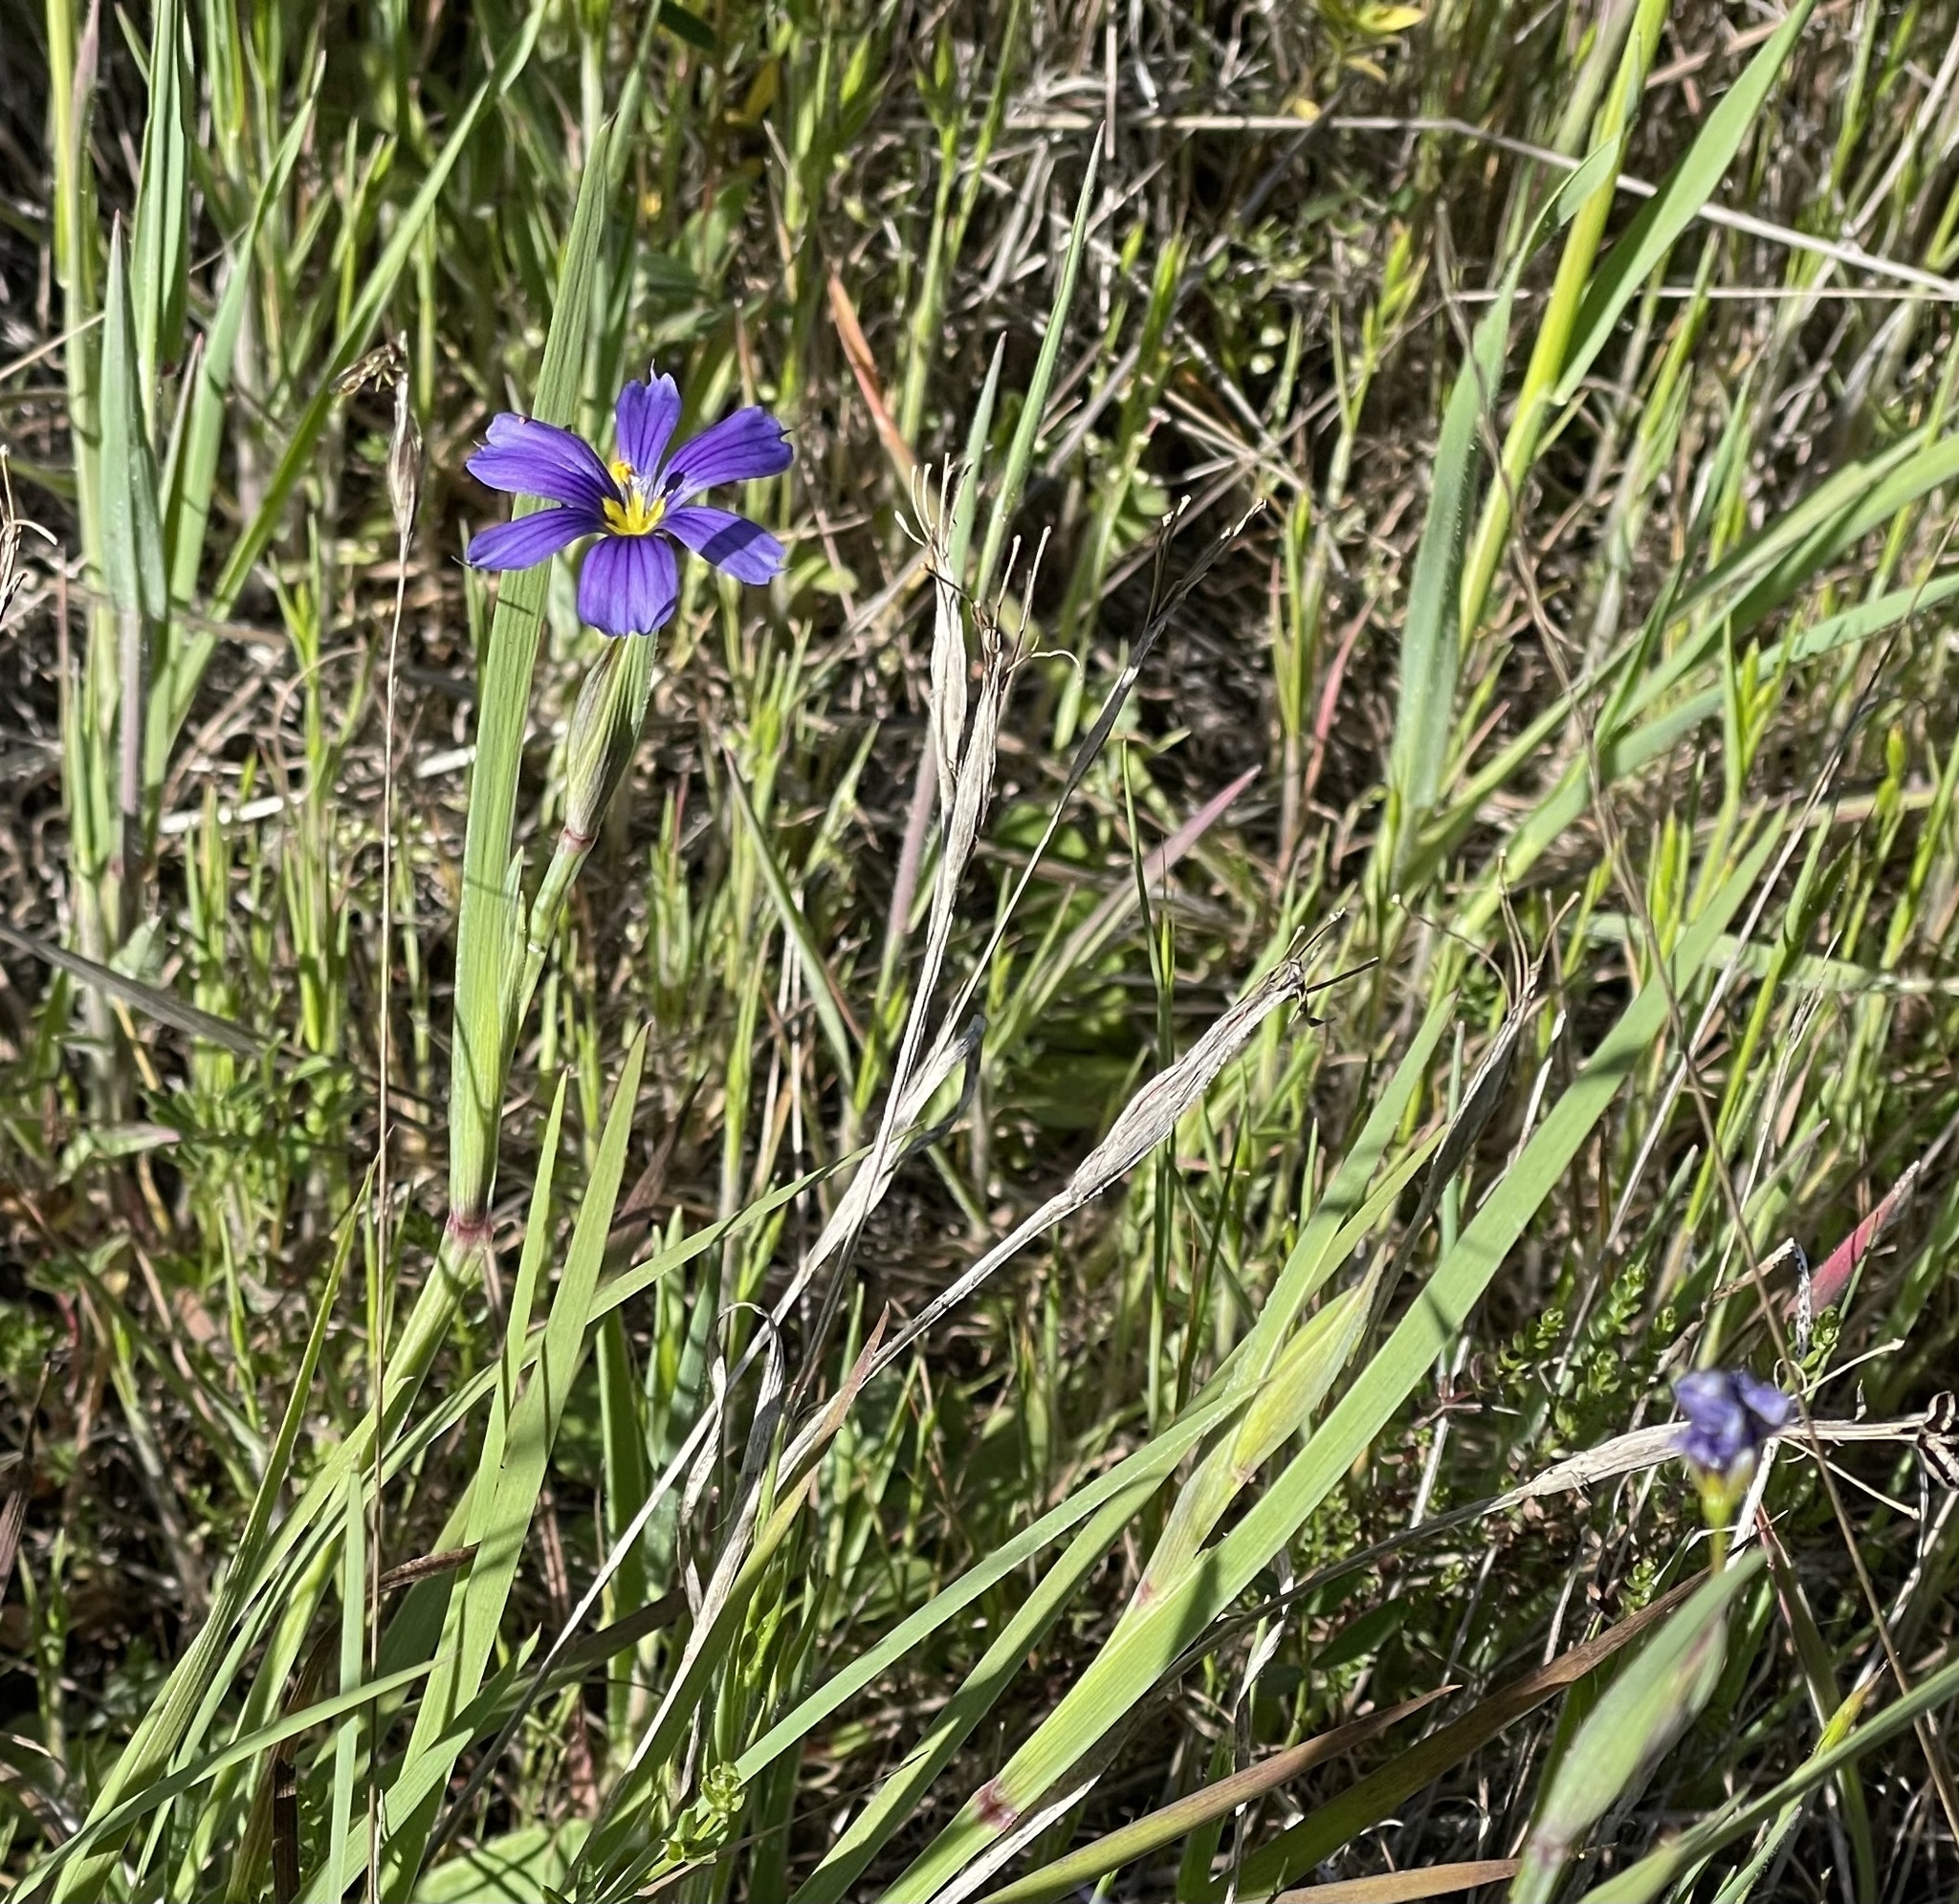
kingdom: Plantae
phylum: Tracheophyta
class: Liliopsida
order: Asparagales
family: Iridaceae
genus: Sisyrinchium
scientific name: Sisyrinchium bellum
